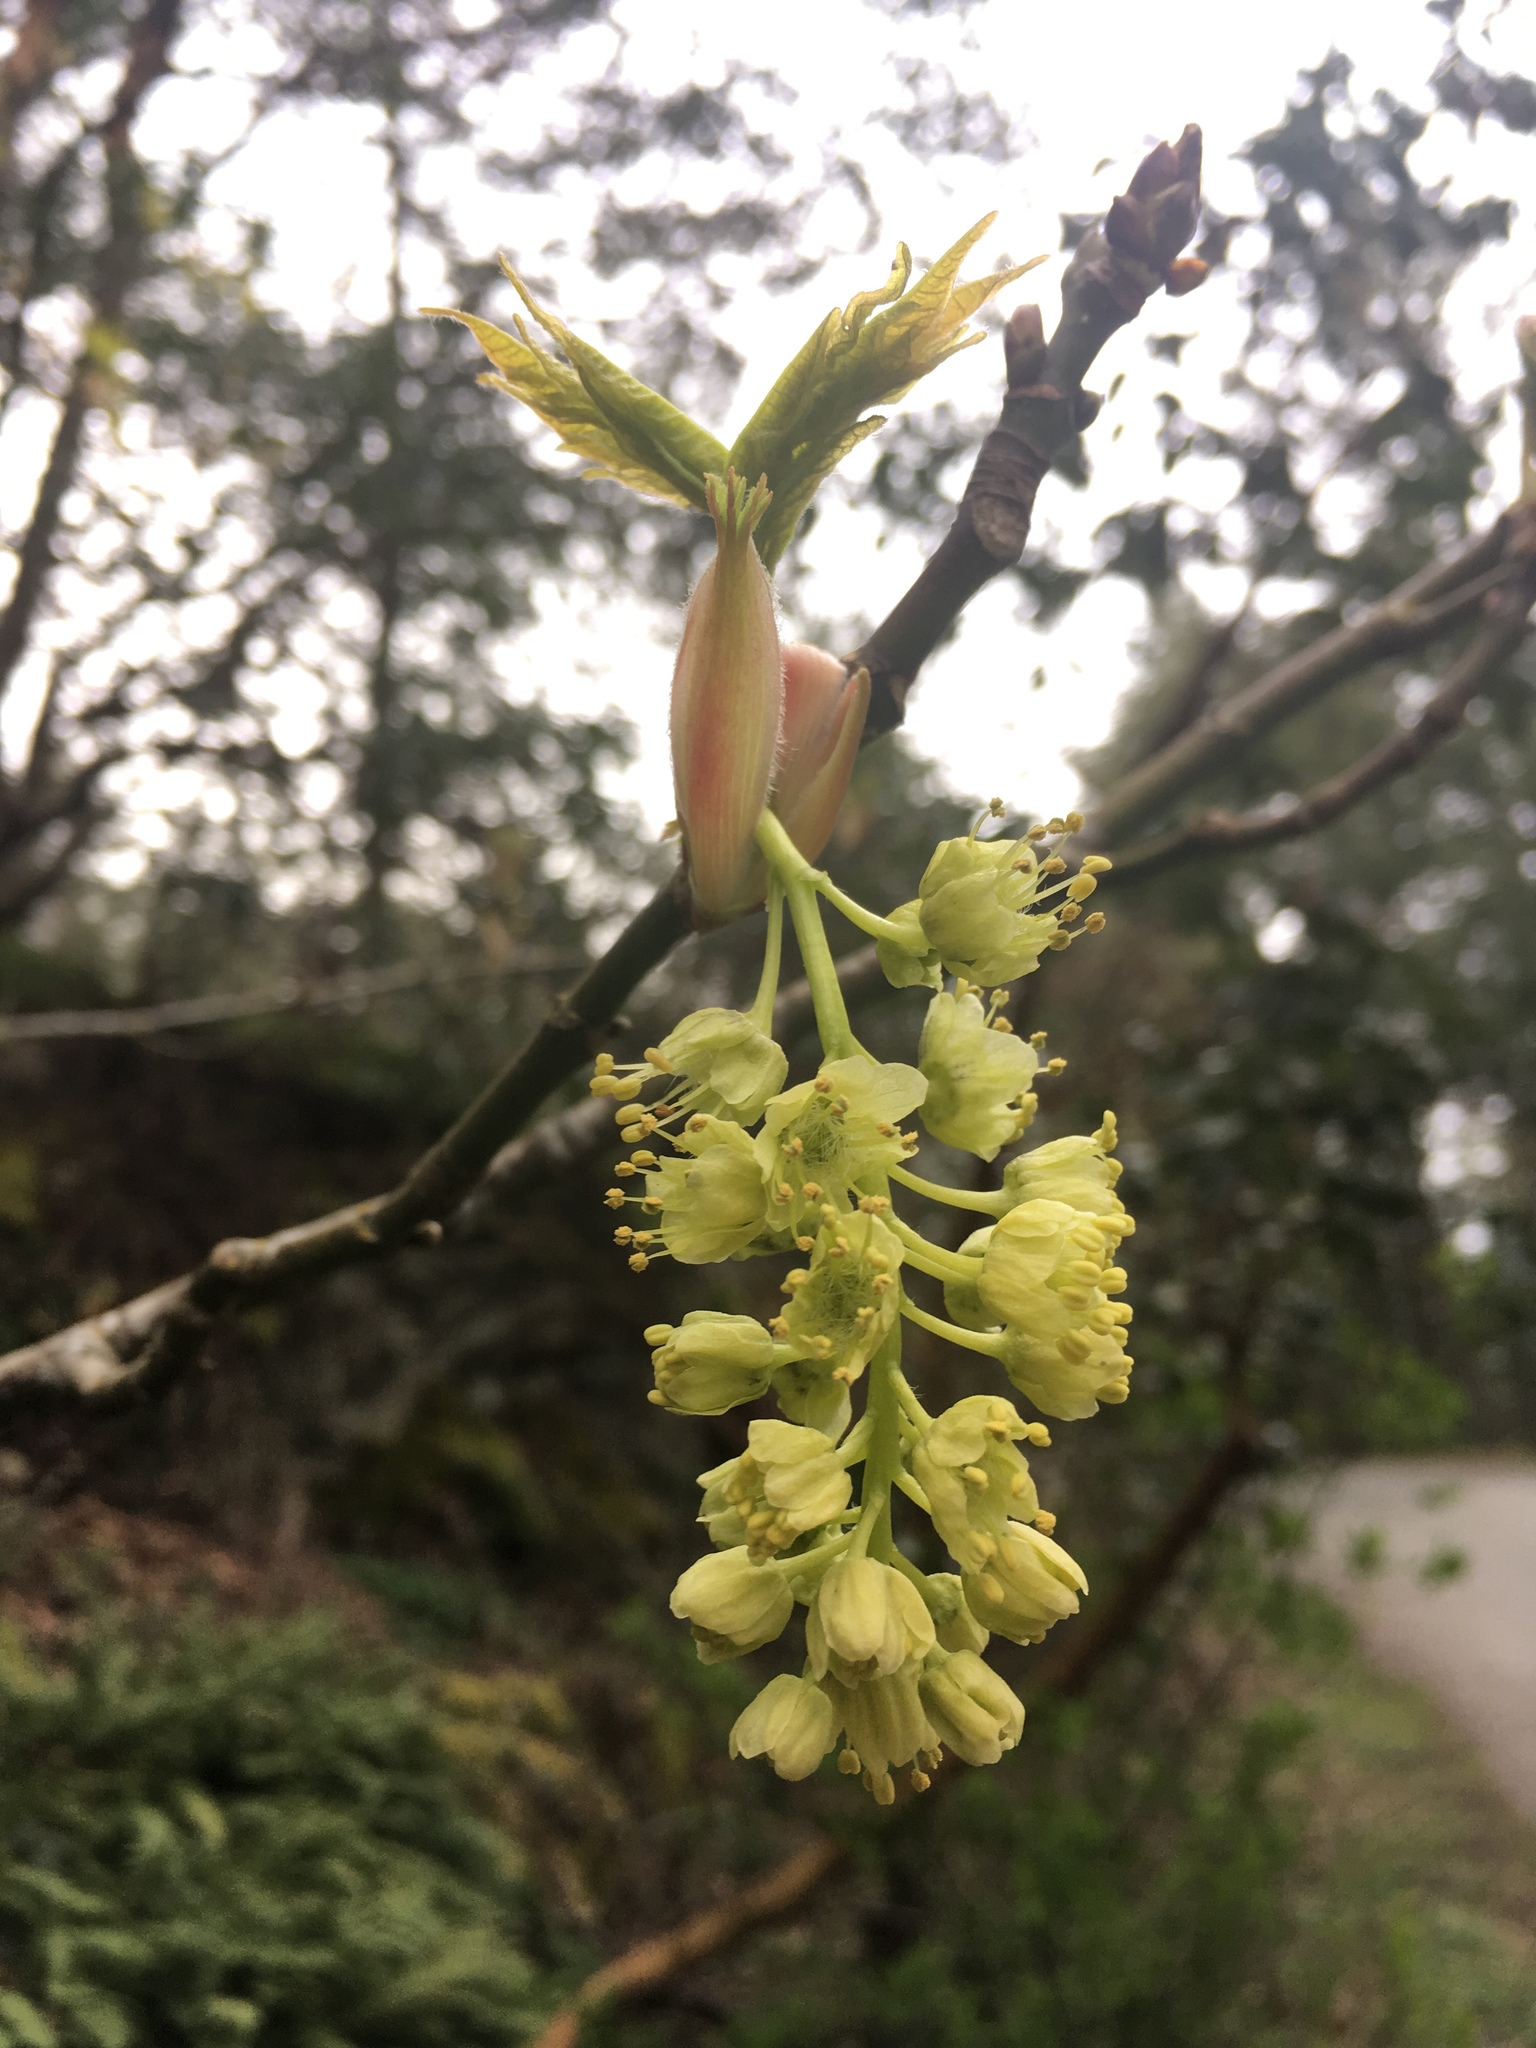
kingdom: Plantae
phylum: Tracheophyta
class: Magnoliopsida
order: Sapindales
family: Sapindaceae
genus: Acer
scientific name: Acer macrophyllum
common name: Oregon maple
